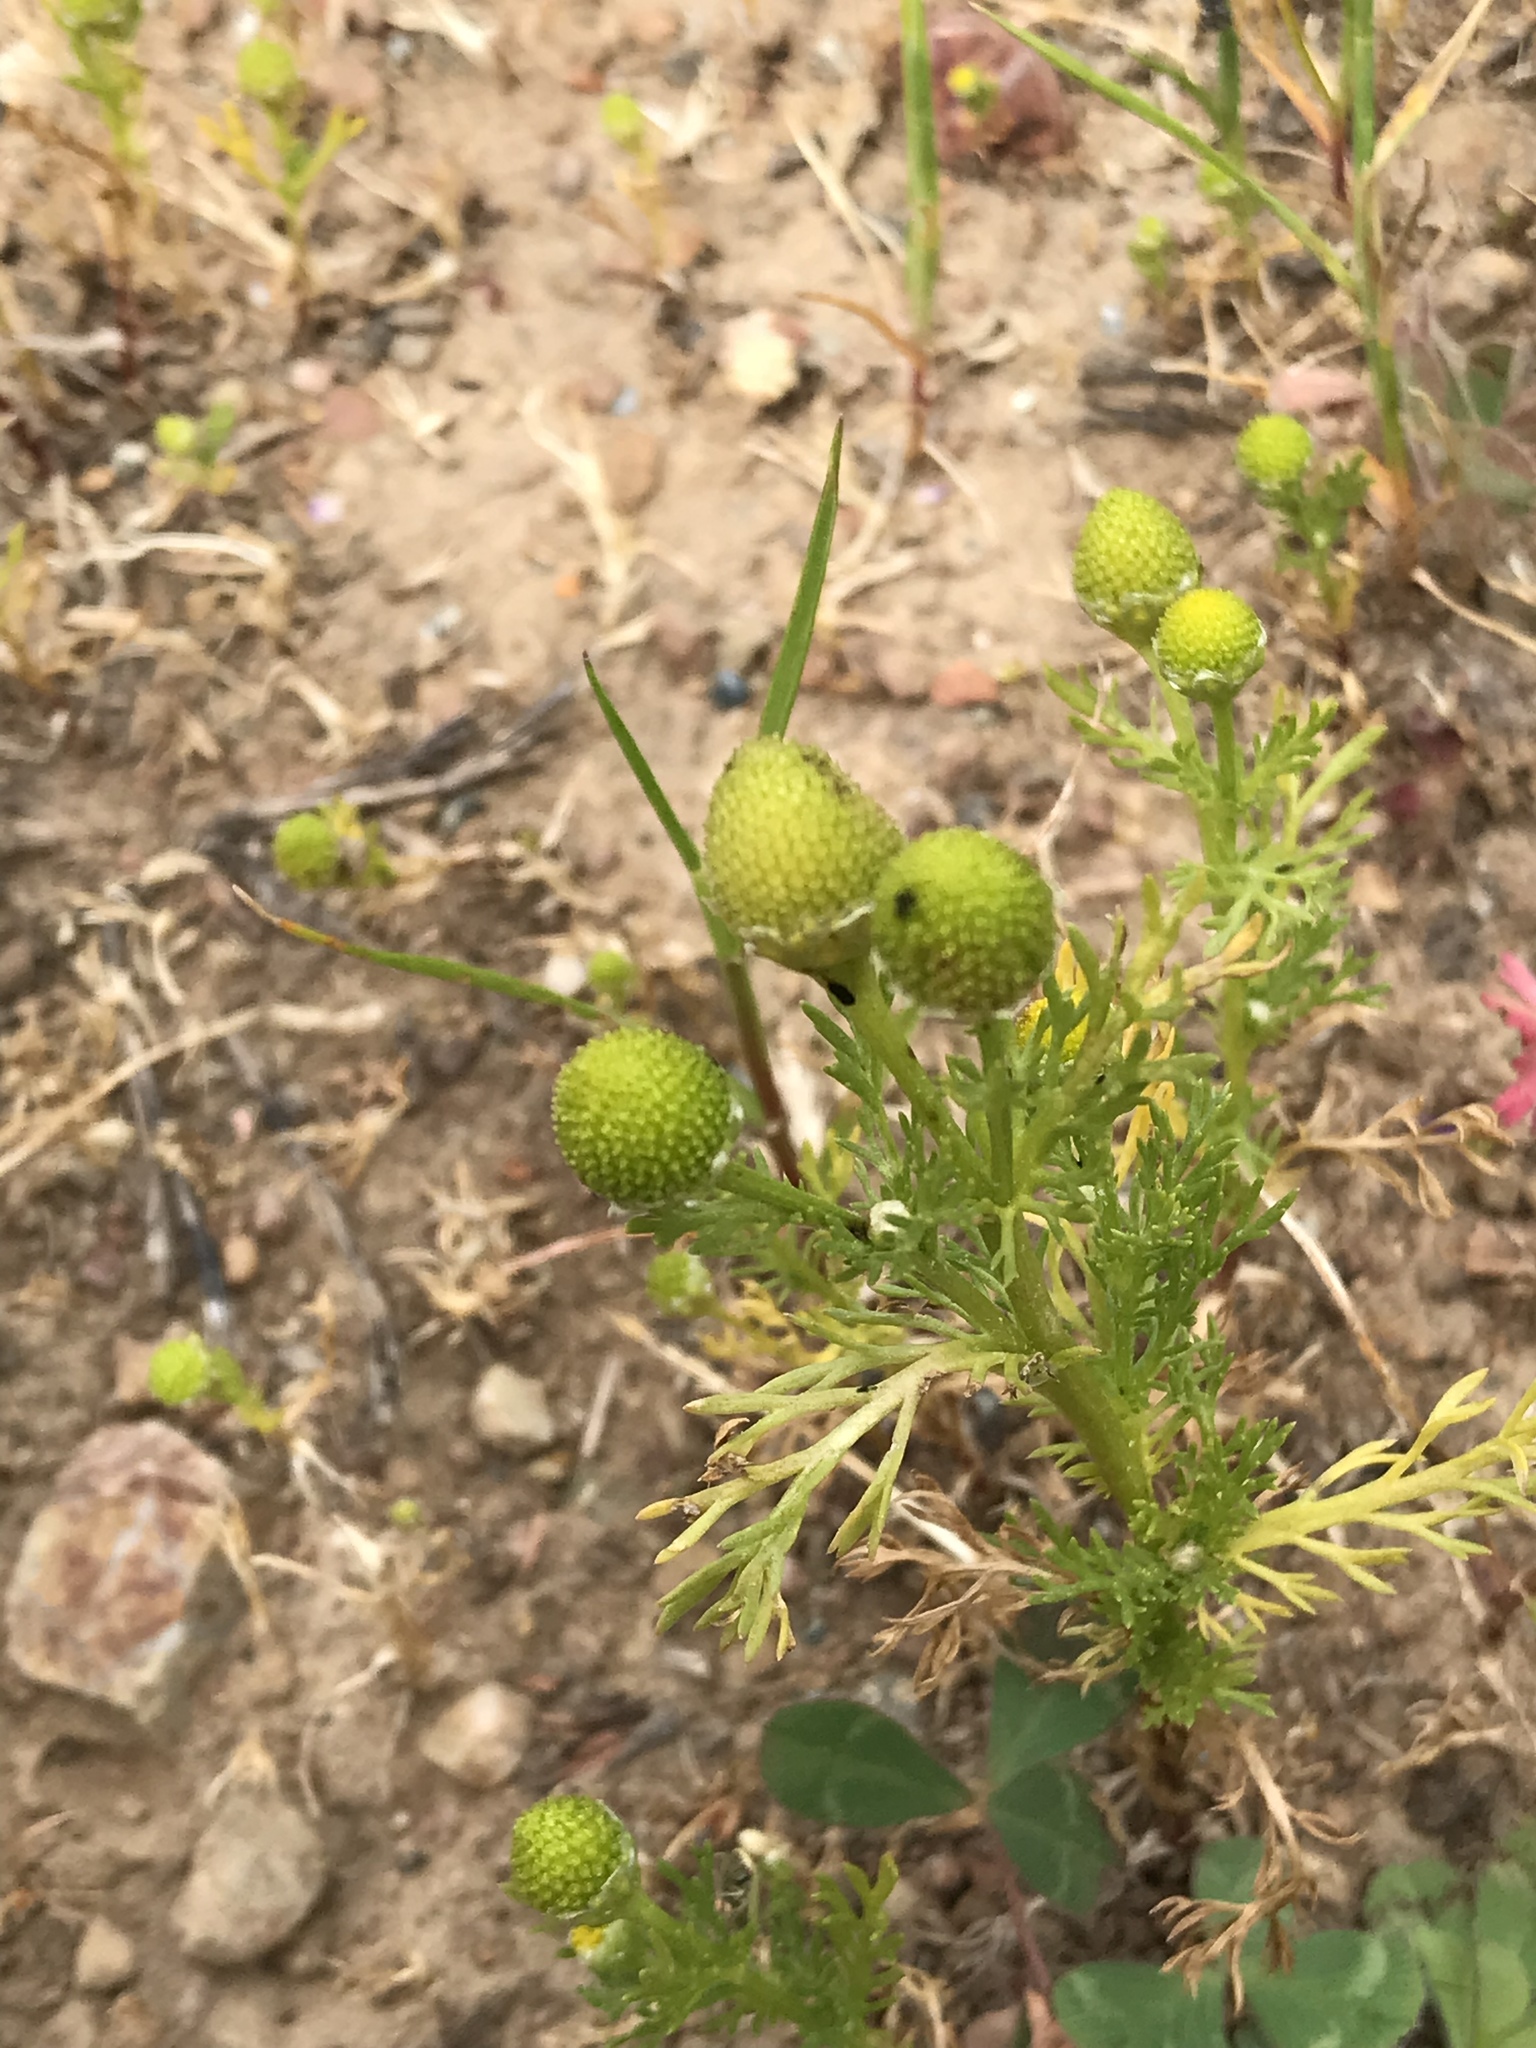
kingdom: Plantae
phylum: Tracheophyta
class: Magnoliopsida
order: Asterales
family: Asteraceae
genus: Matricaria
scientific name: Matricaria discoidea
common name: Disc mayweed
